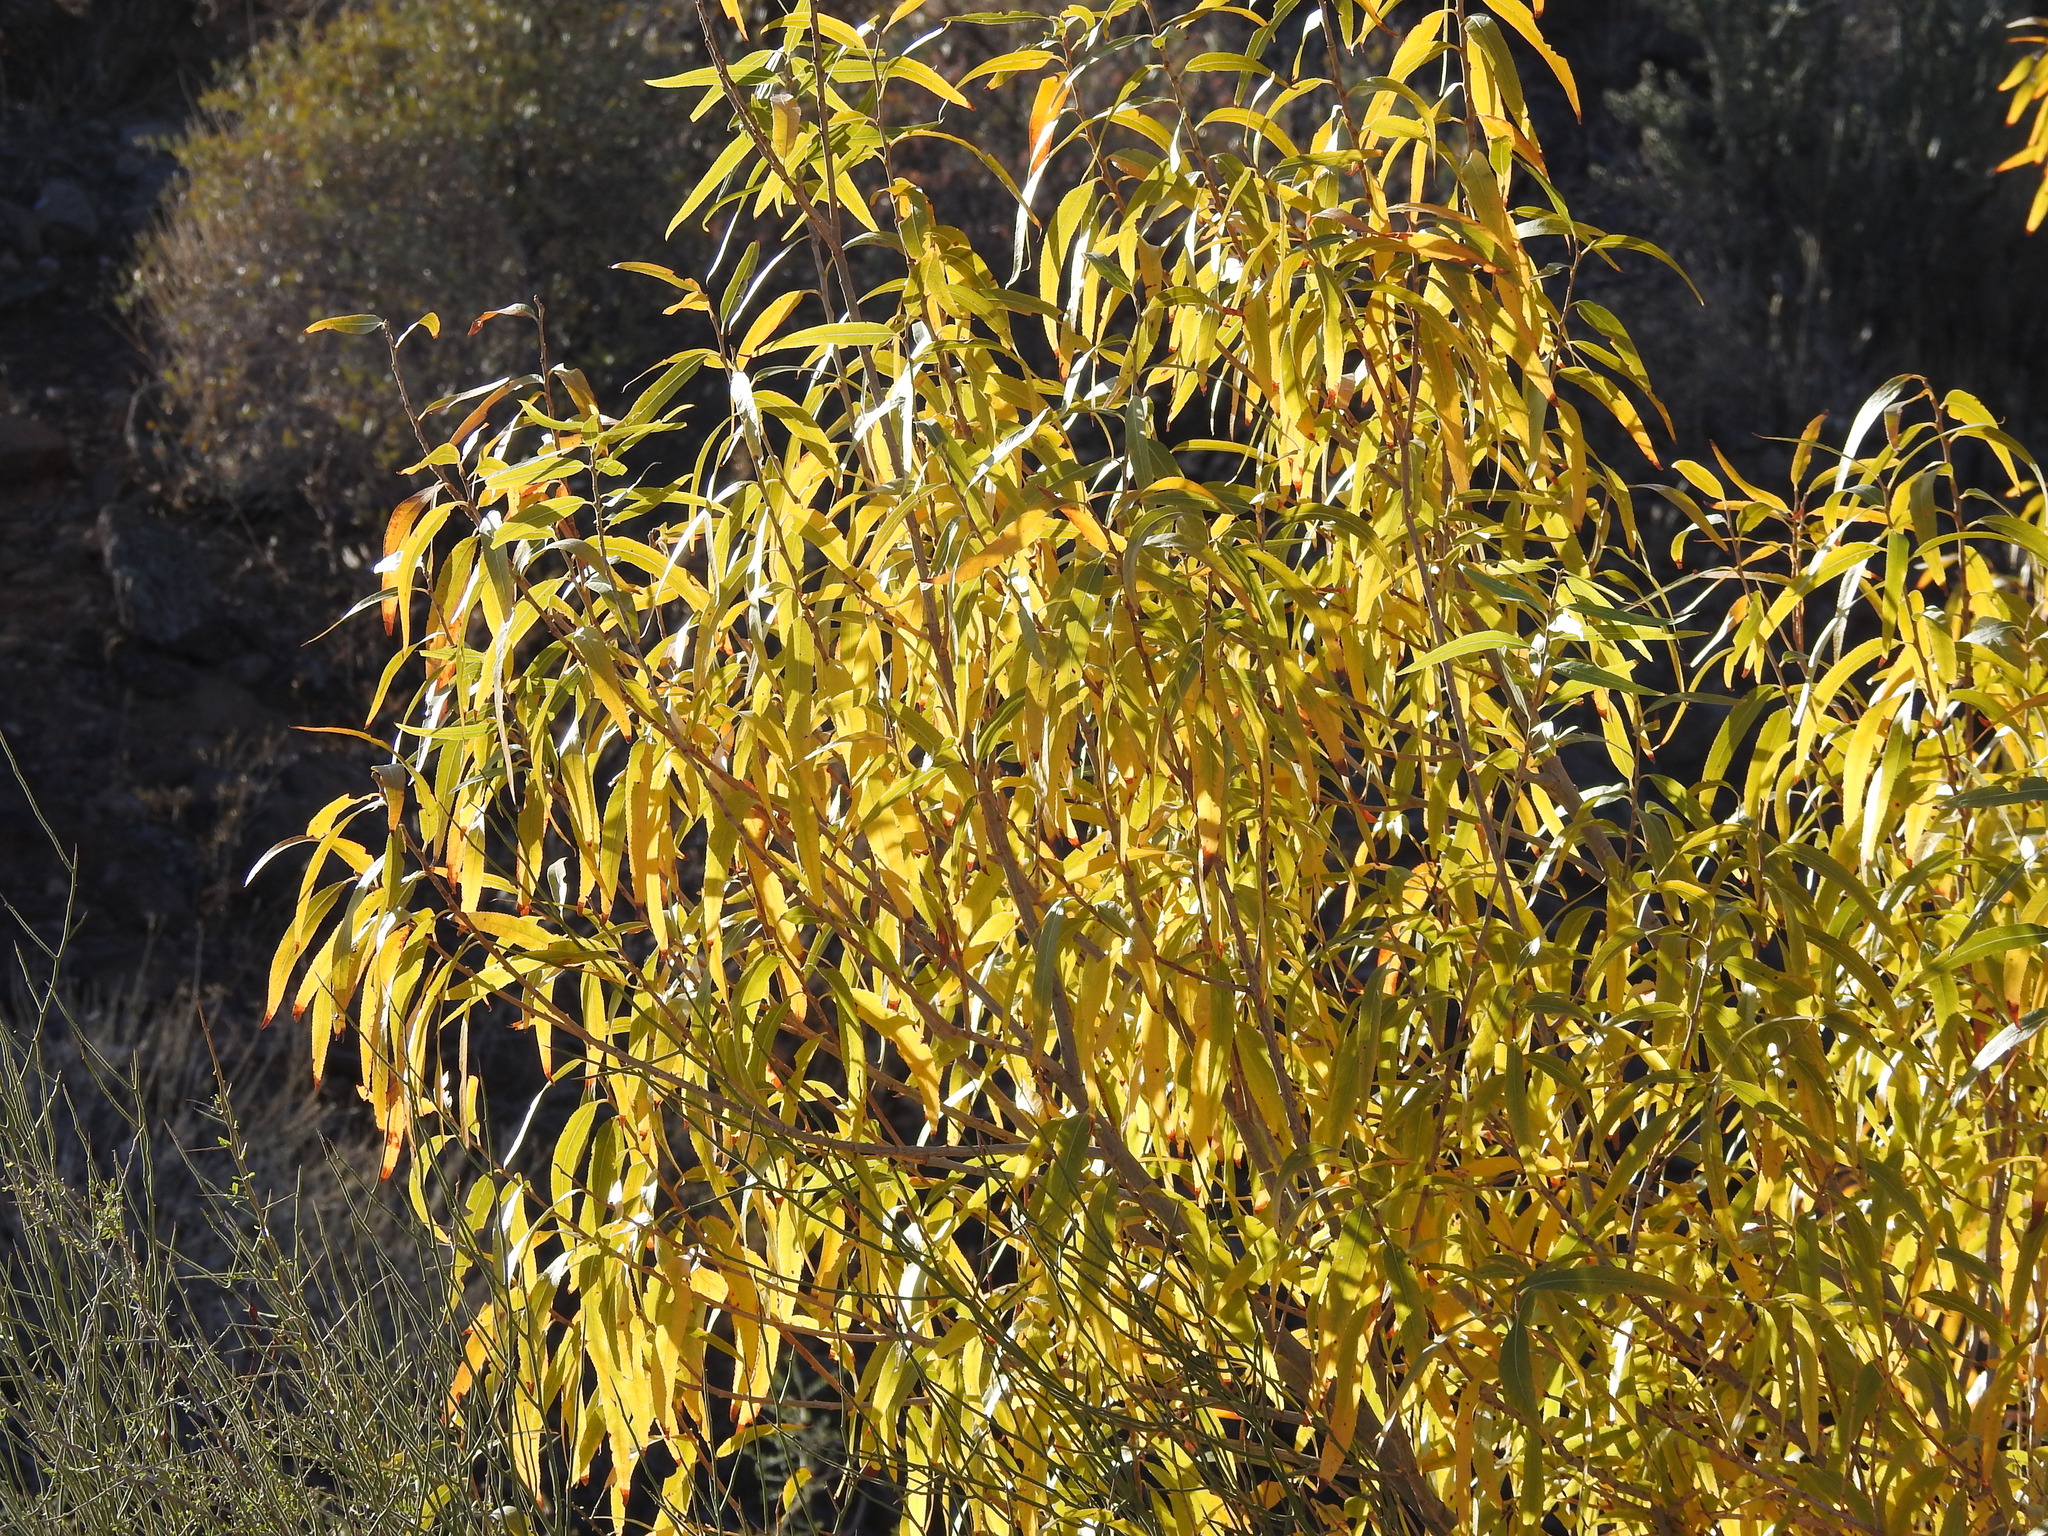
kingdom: Plantae
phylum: Tracheophyta
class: Magnoliopsida
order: Malpighiales
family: Salicaceae
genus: Salix
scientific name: Salix gooddingii
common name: Goodding's willow
